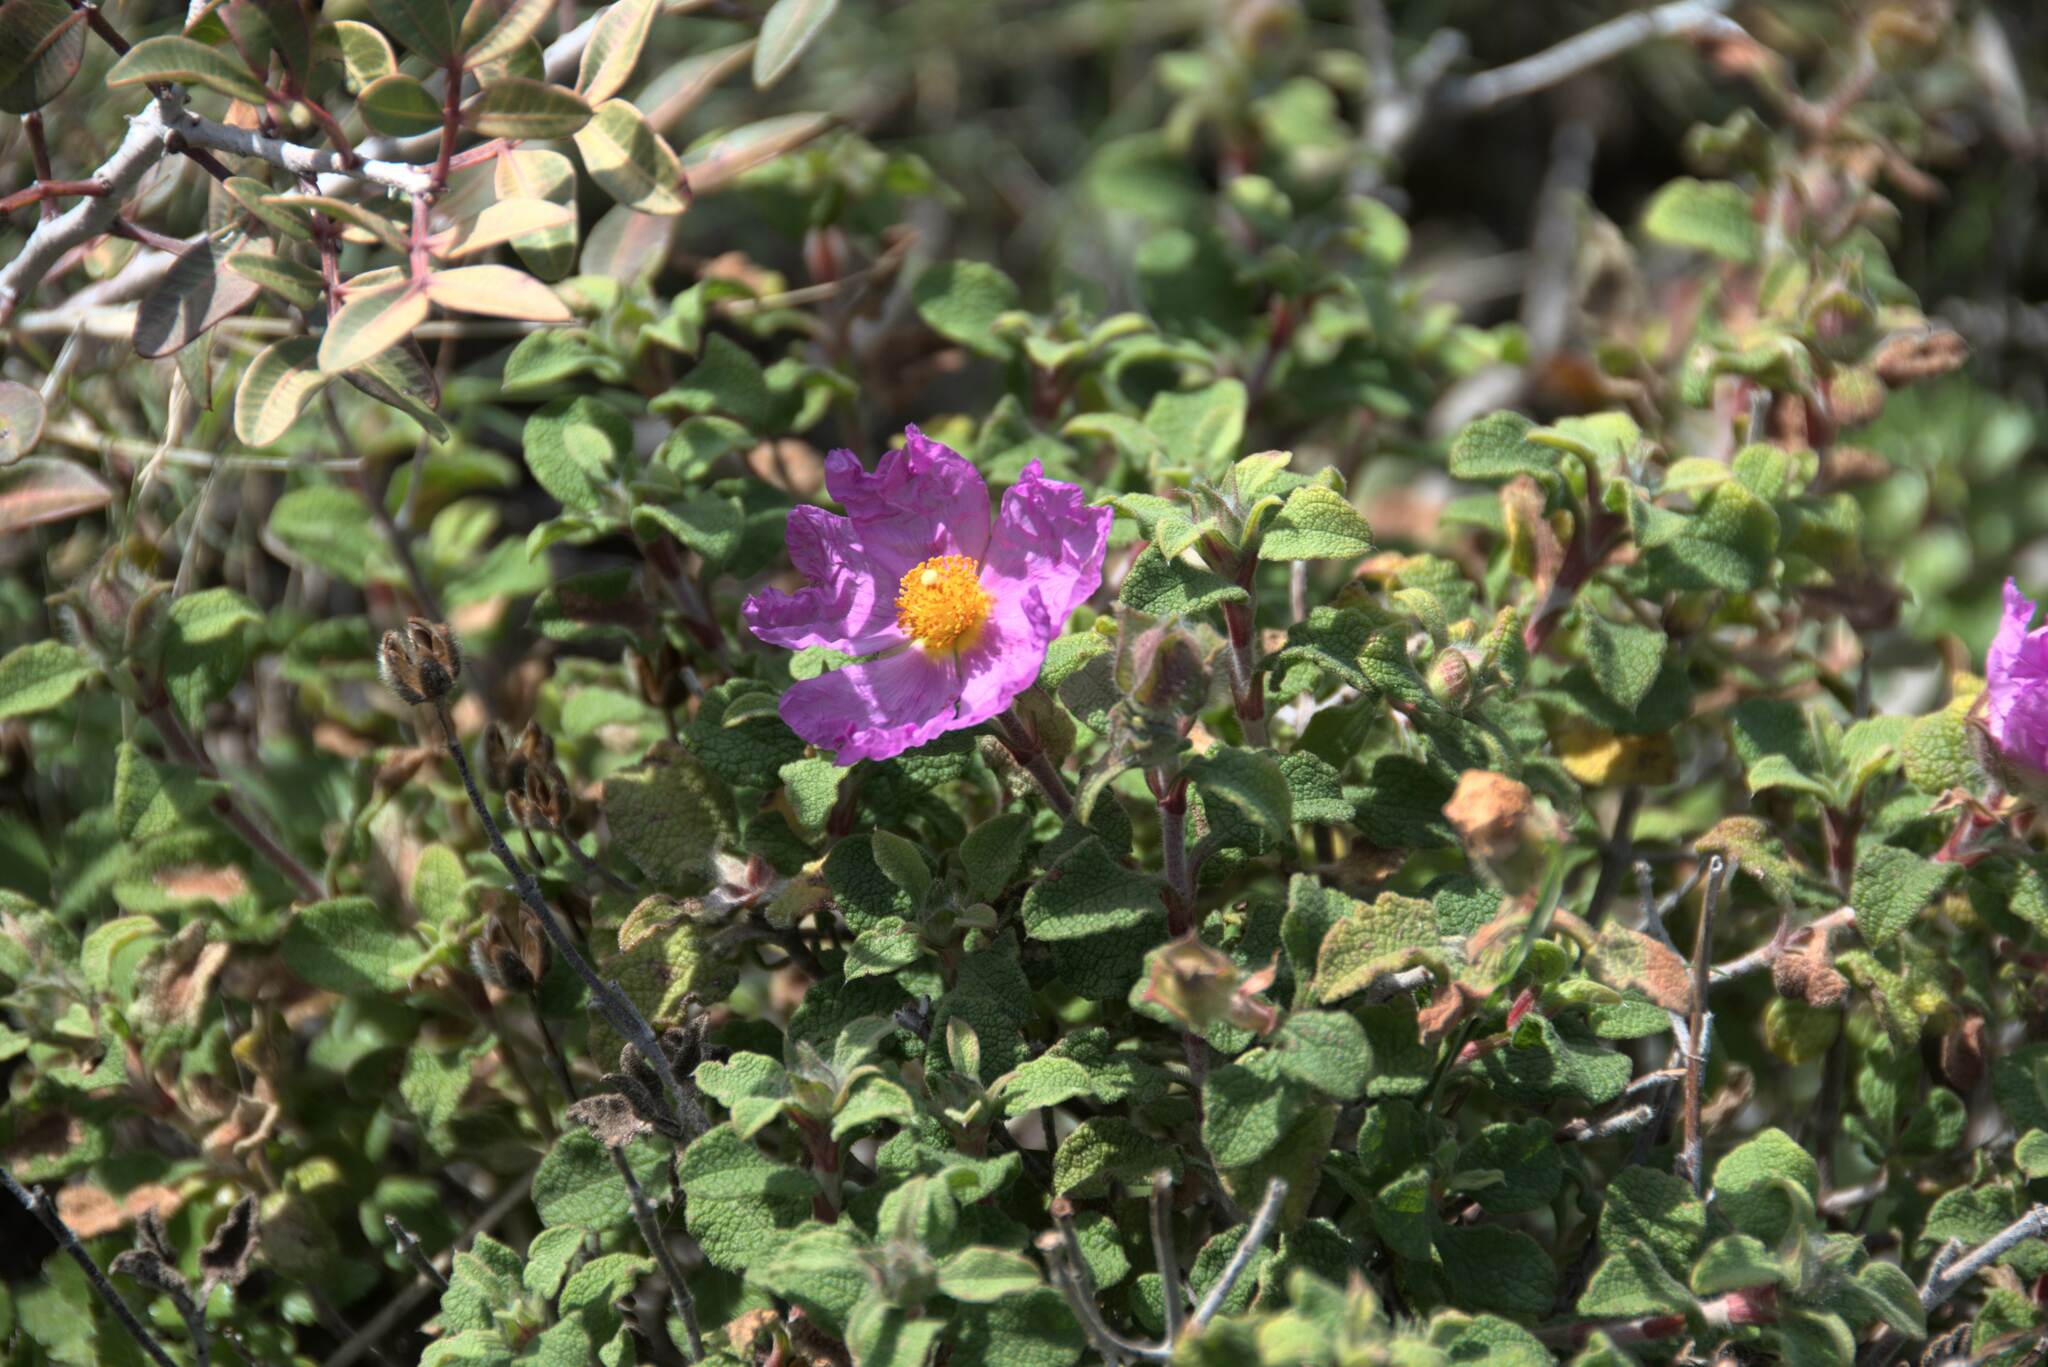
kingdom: Plantae
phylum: Tracheophyta
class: Magnoliopsida
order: Malvales
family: Cistaceae
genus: Cistus
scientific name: Cistus creticus
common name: Cretan rockrose
